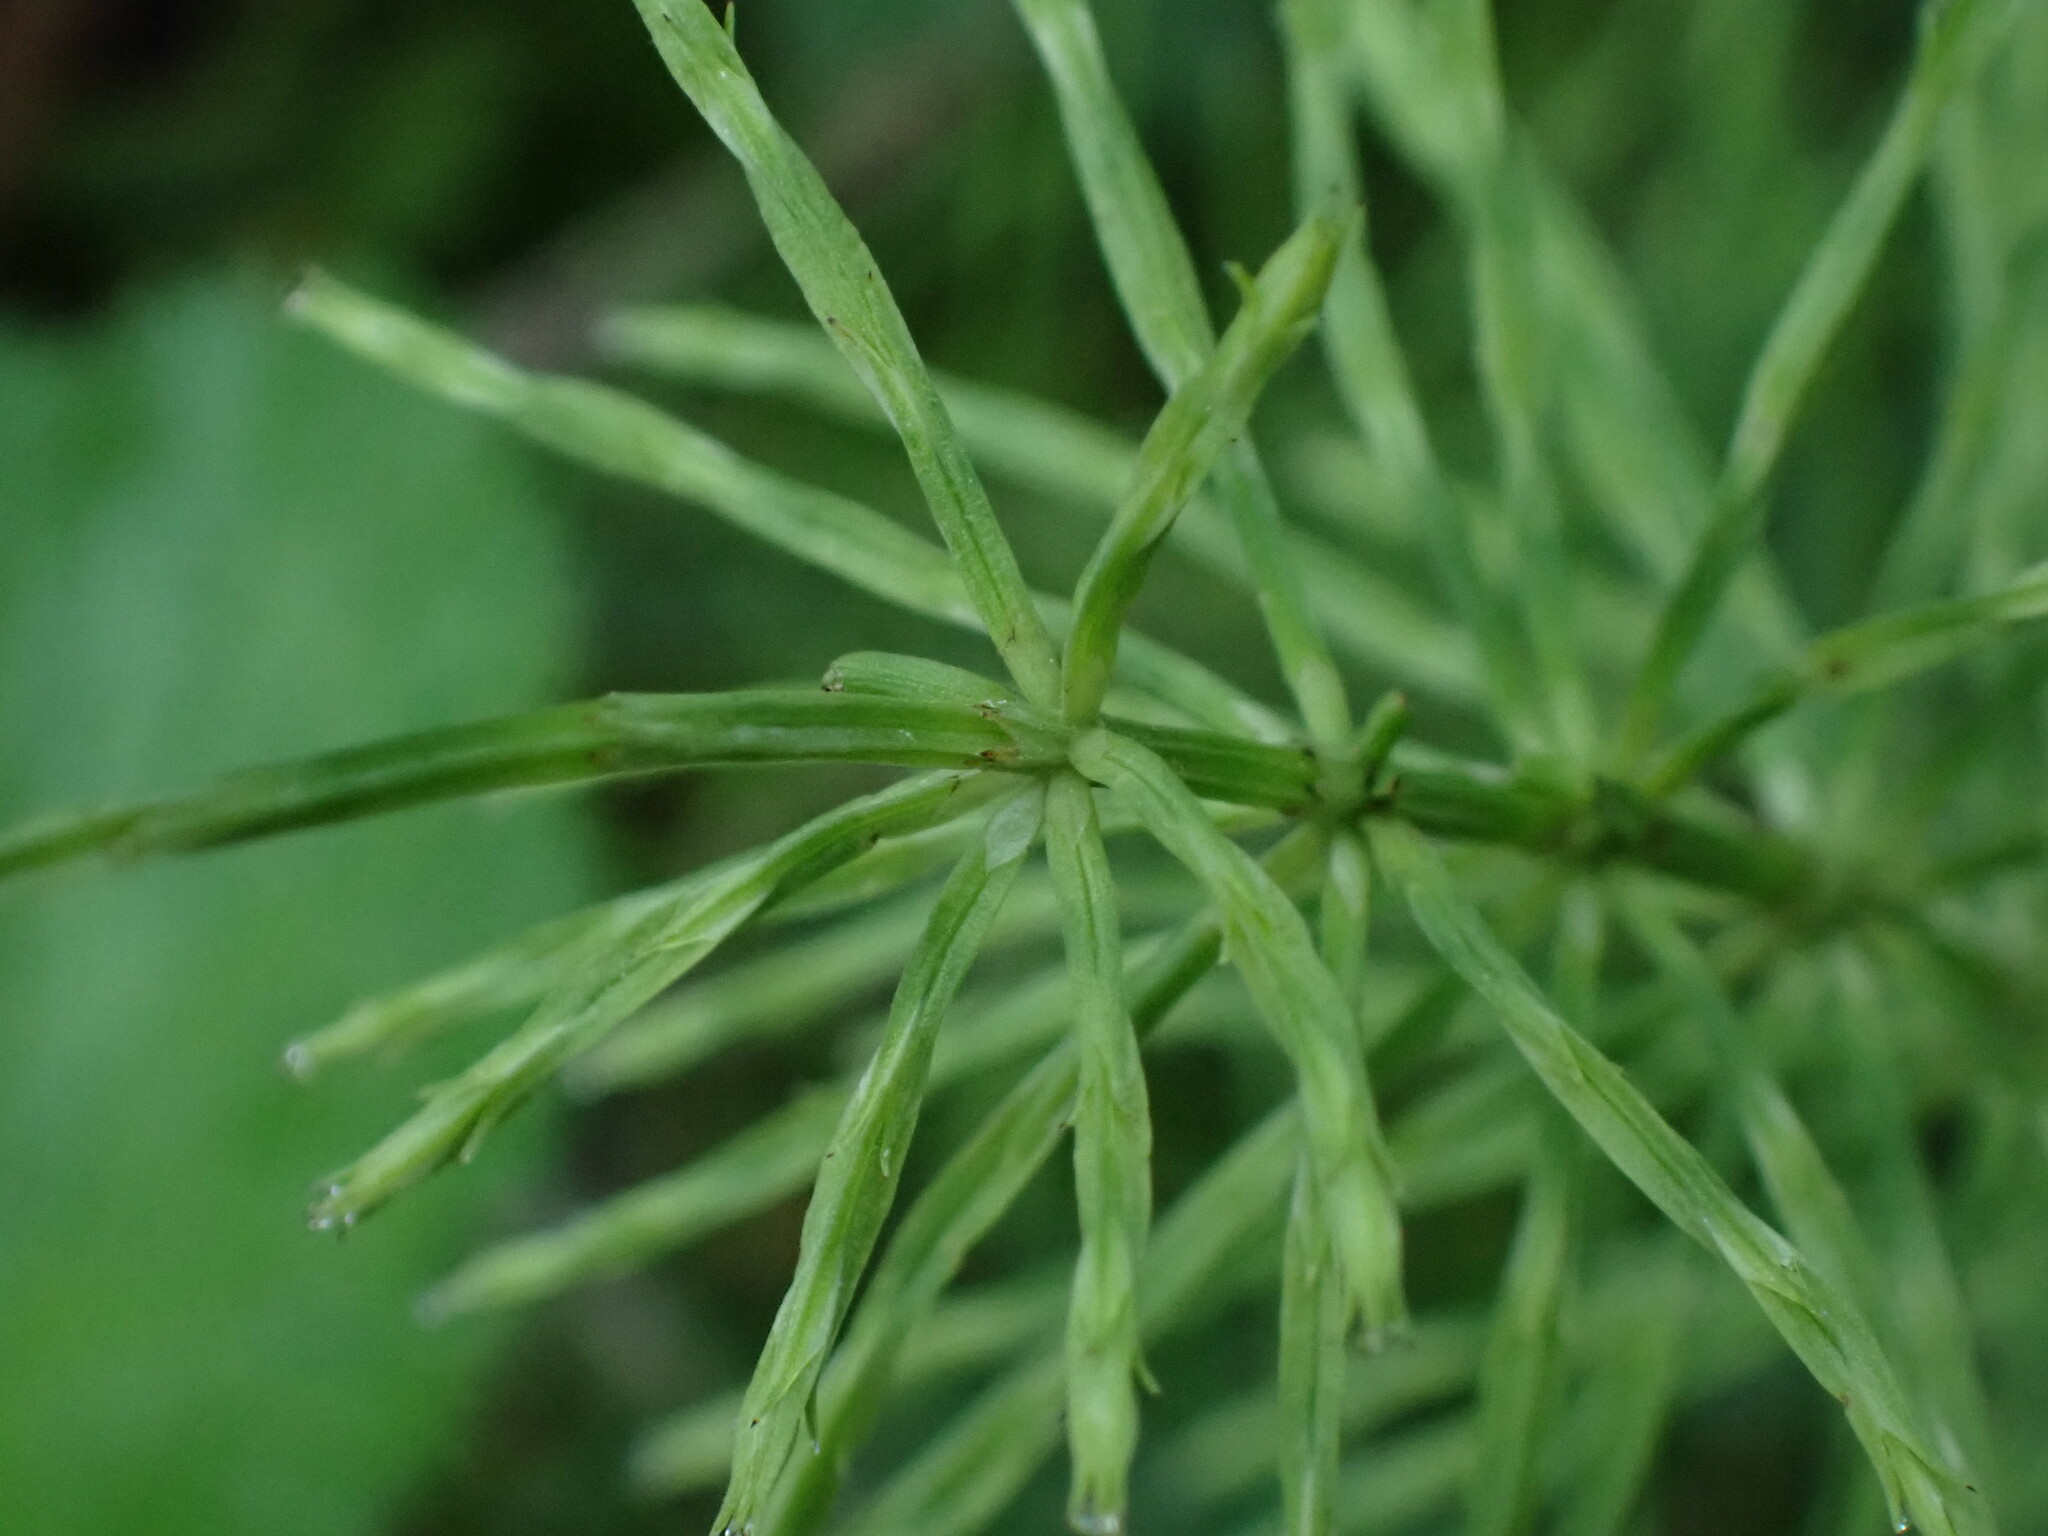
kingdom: Plantae
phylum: Tracheophyta
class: Polypodiopsida
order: Equisetales
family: Equisetaceae
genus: Equisetum
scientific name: Equisetum arvense
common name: Field horsetail
